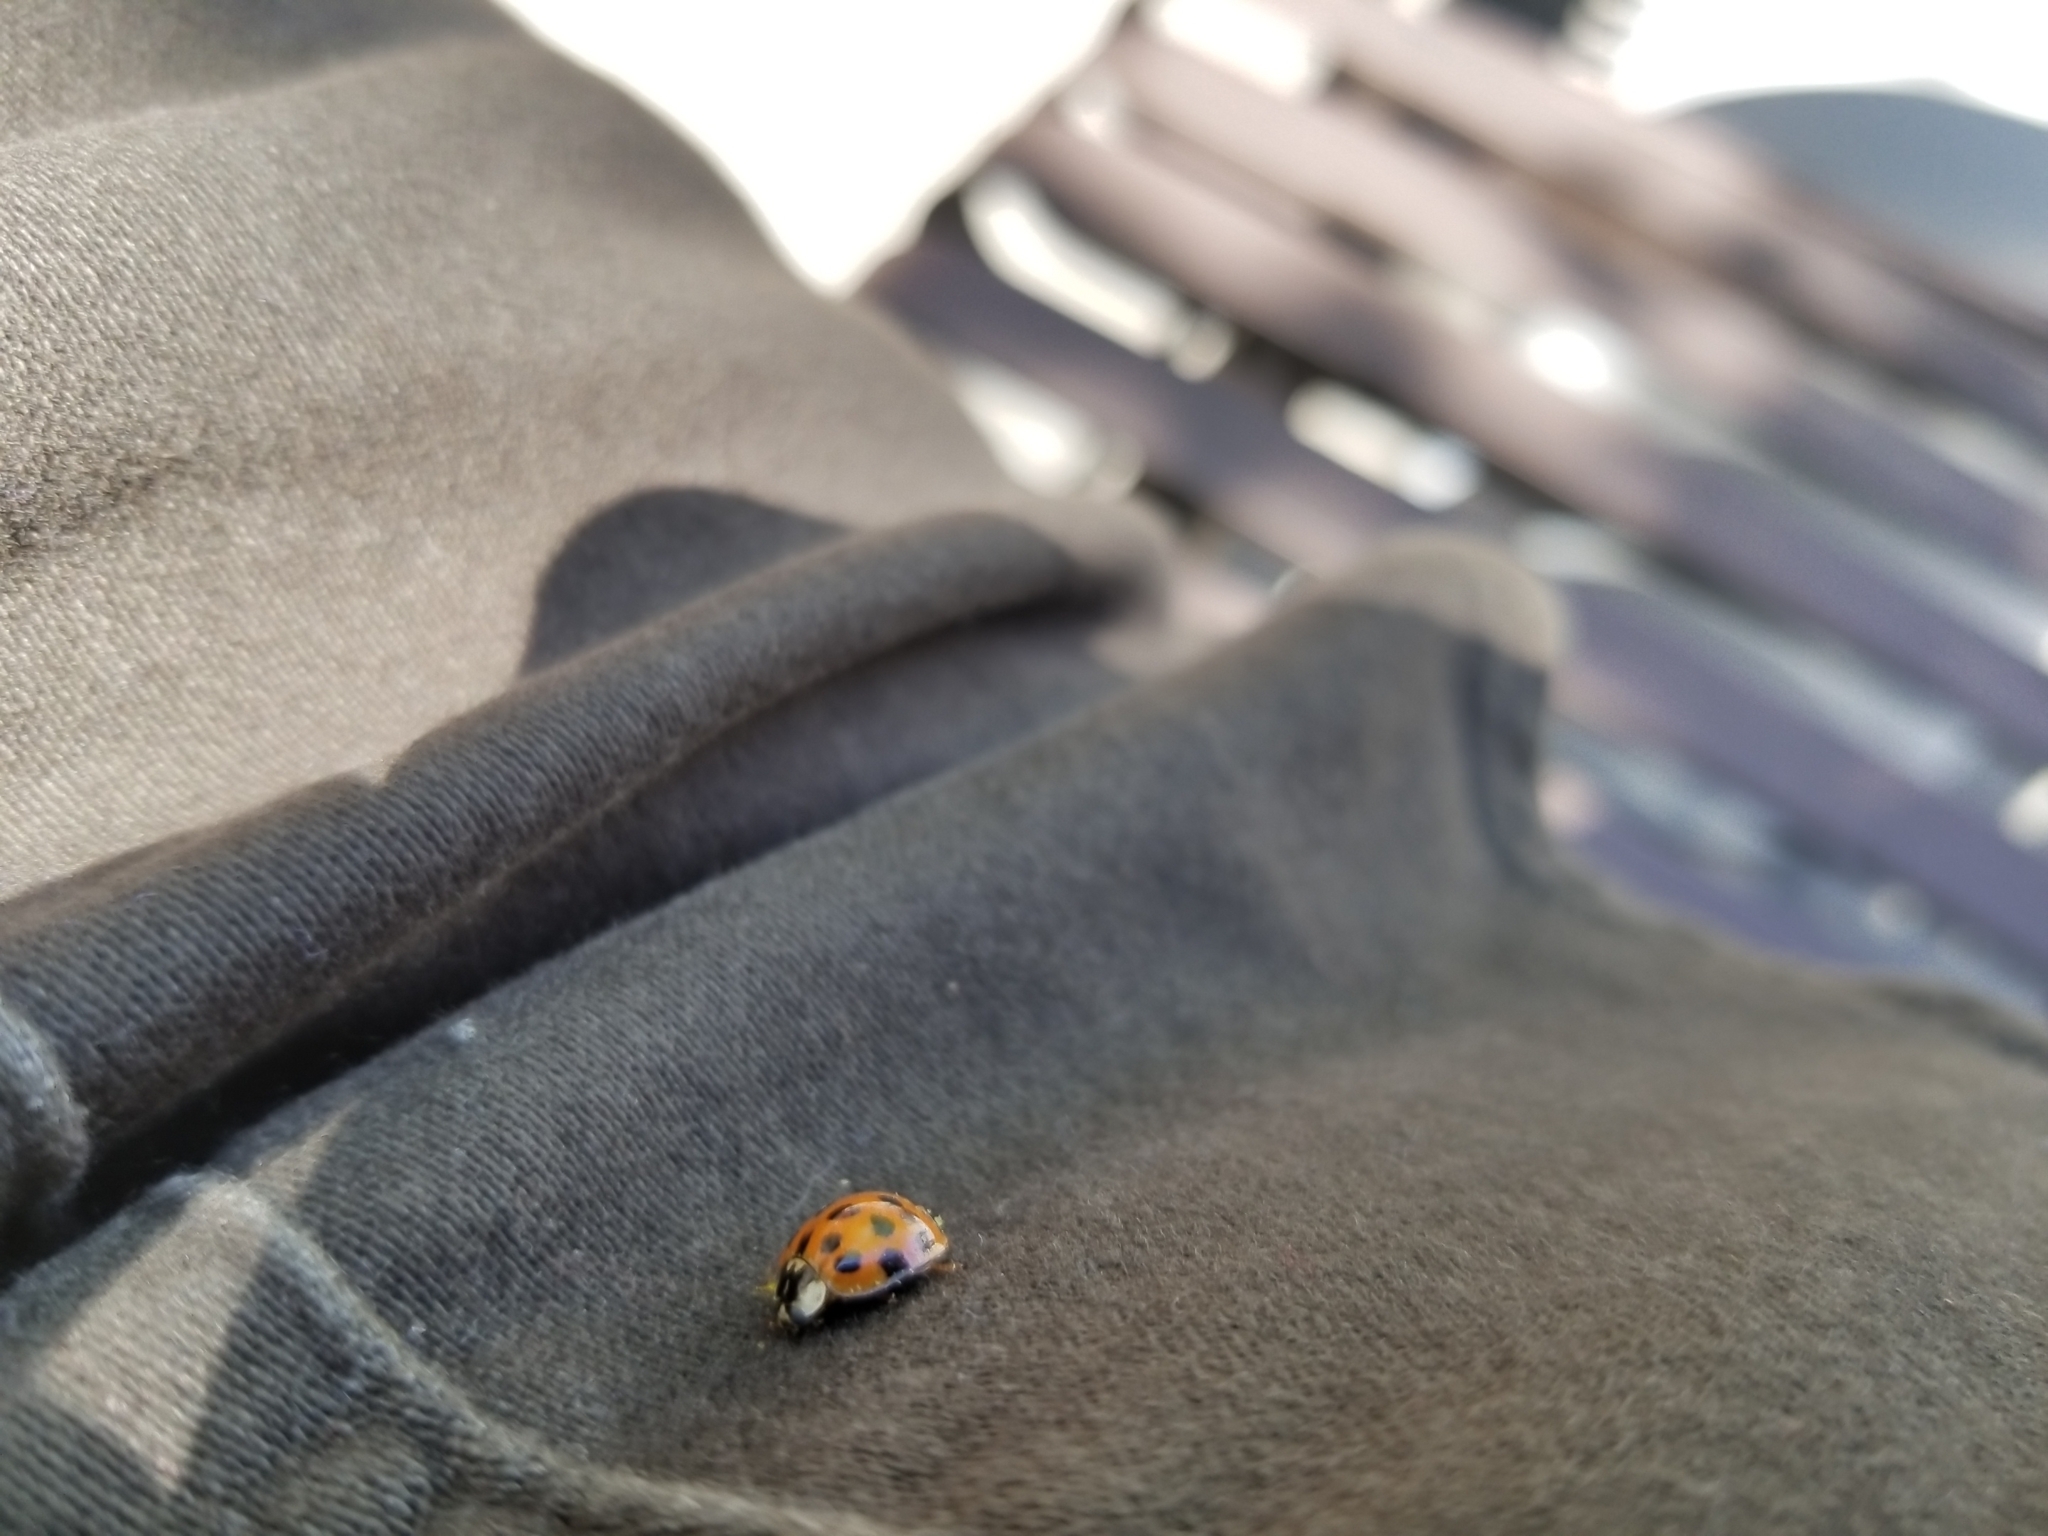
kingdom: Animalia
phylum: Arthropoda
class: Insecta
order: Coleoptera
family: Coccinellidae
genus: Harmonia
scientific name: Harmonia axyridis
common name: Harlequin ladybird
